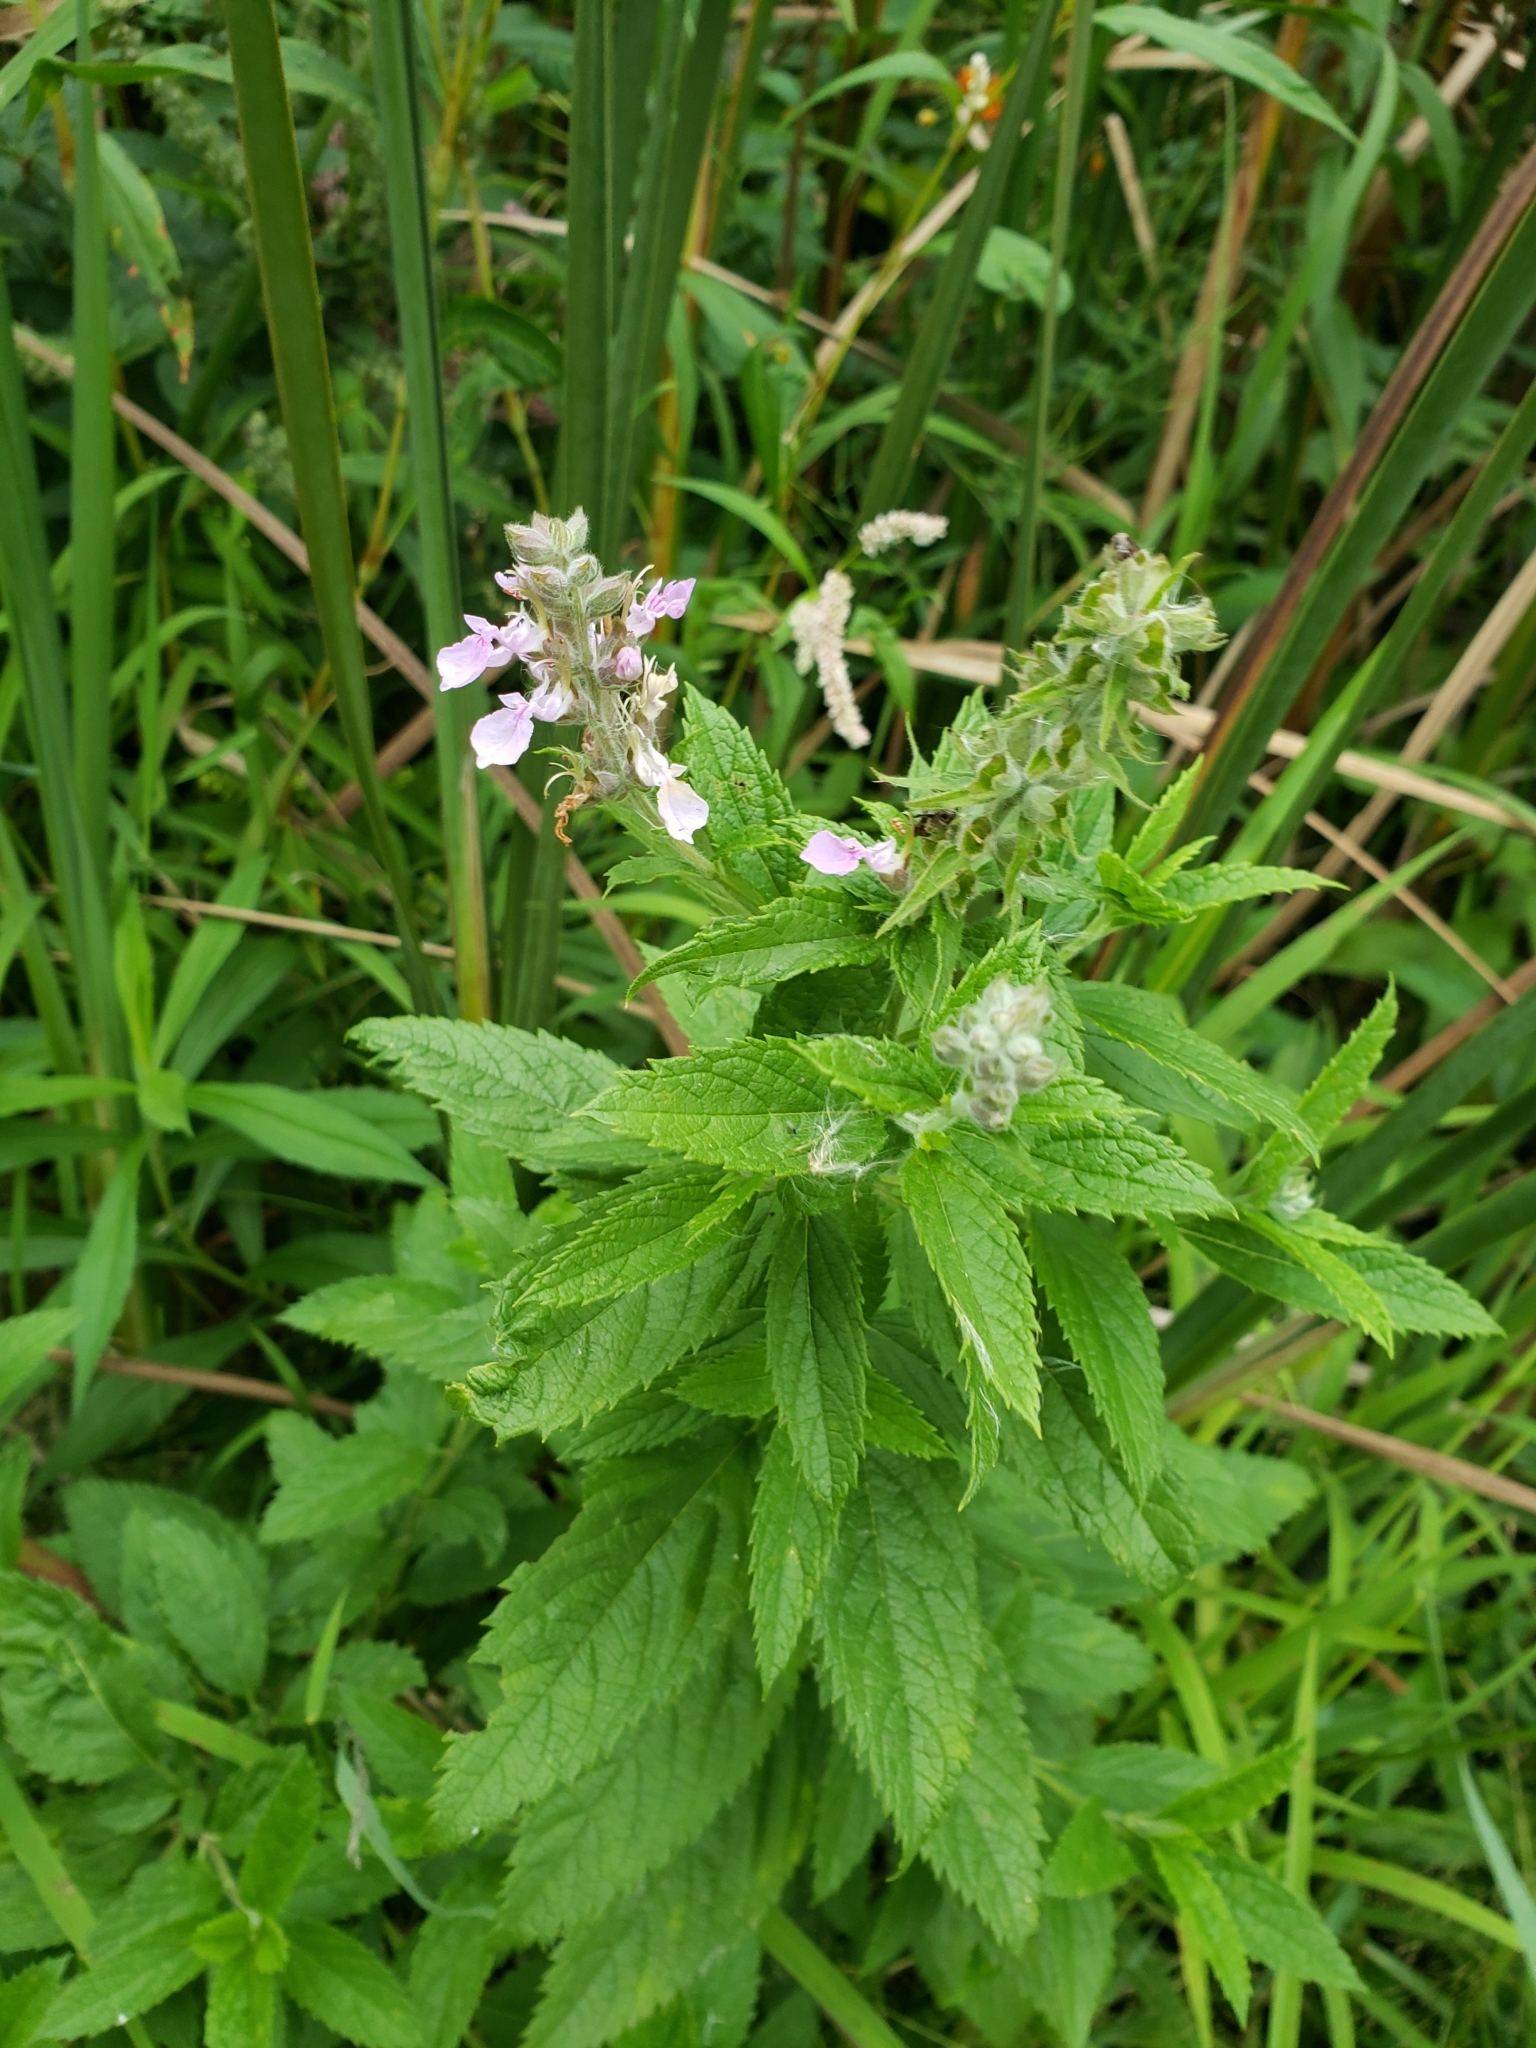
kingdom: Plantae
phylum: Tracheophyta
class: Magnoliopsida
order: Lamiales
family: Lamiaceae
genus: Teucrium
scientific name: Teucrium canadense
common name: American germander
